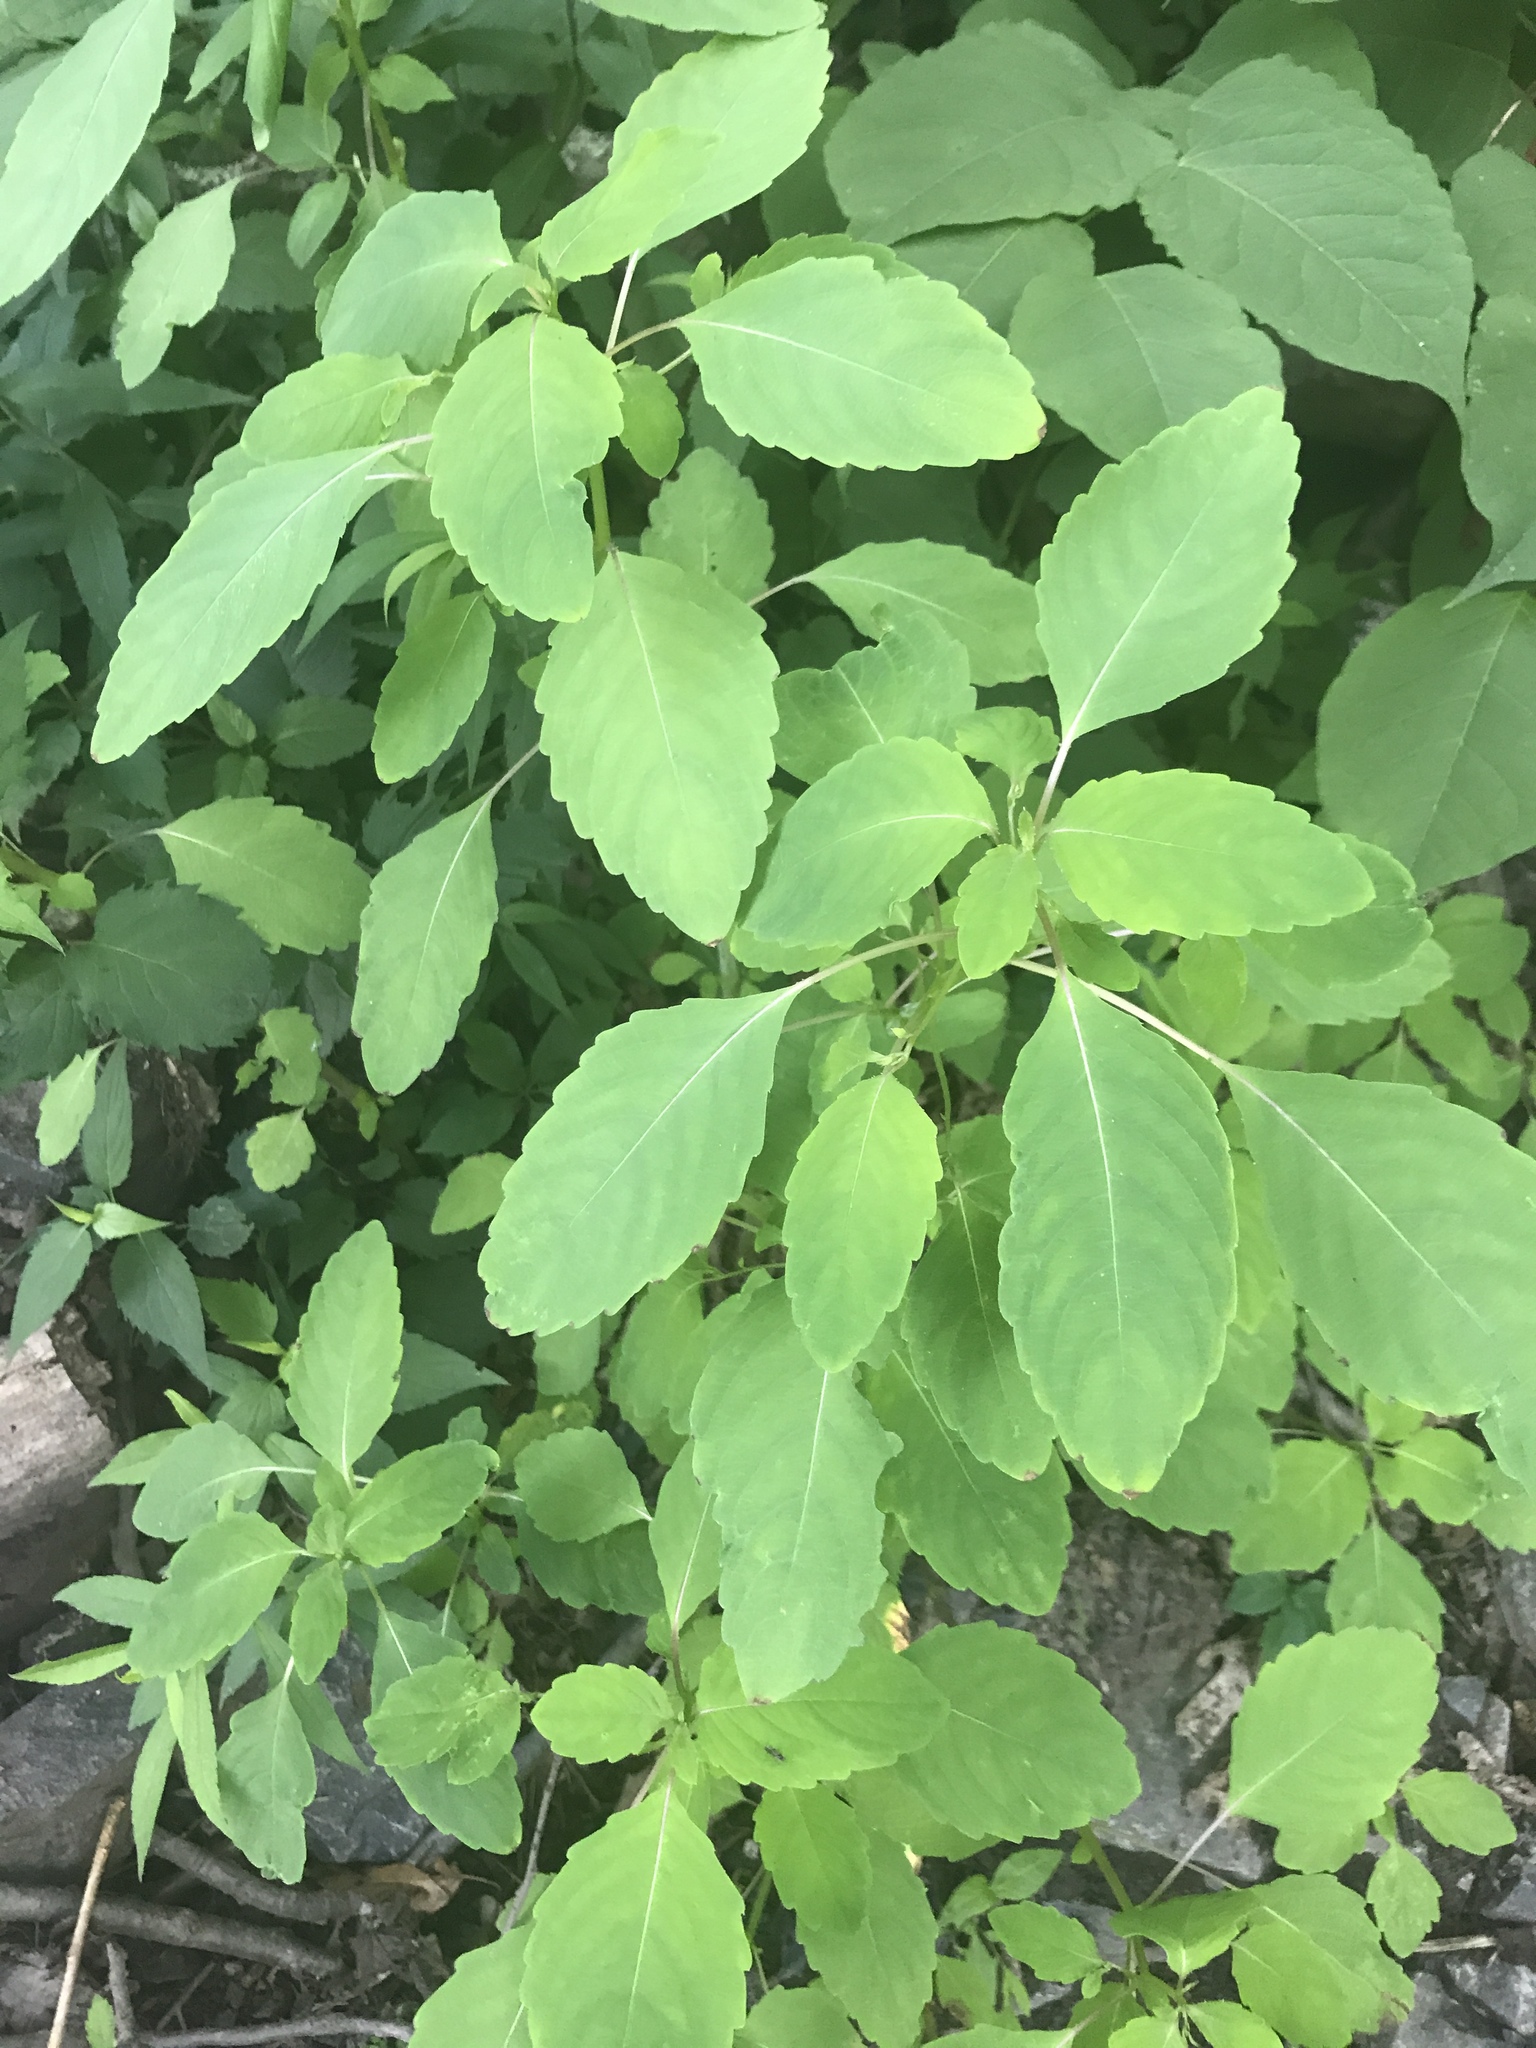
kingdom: Plantae
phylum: Tracheophyta
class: Magnoliopsida
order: Ericales
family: Balsaminaceae
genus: Impatiens
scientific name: Impatiens capensis
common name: Orange balsam
